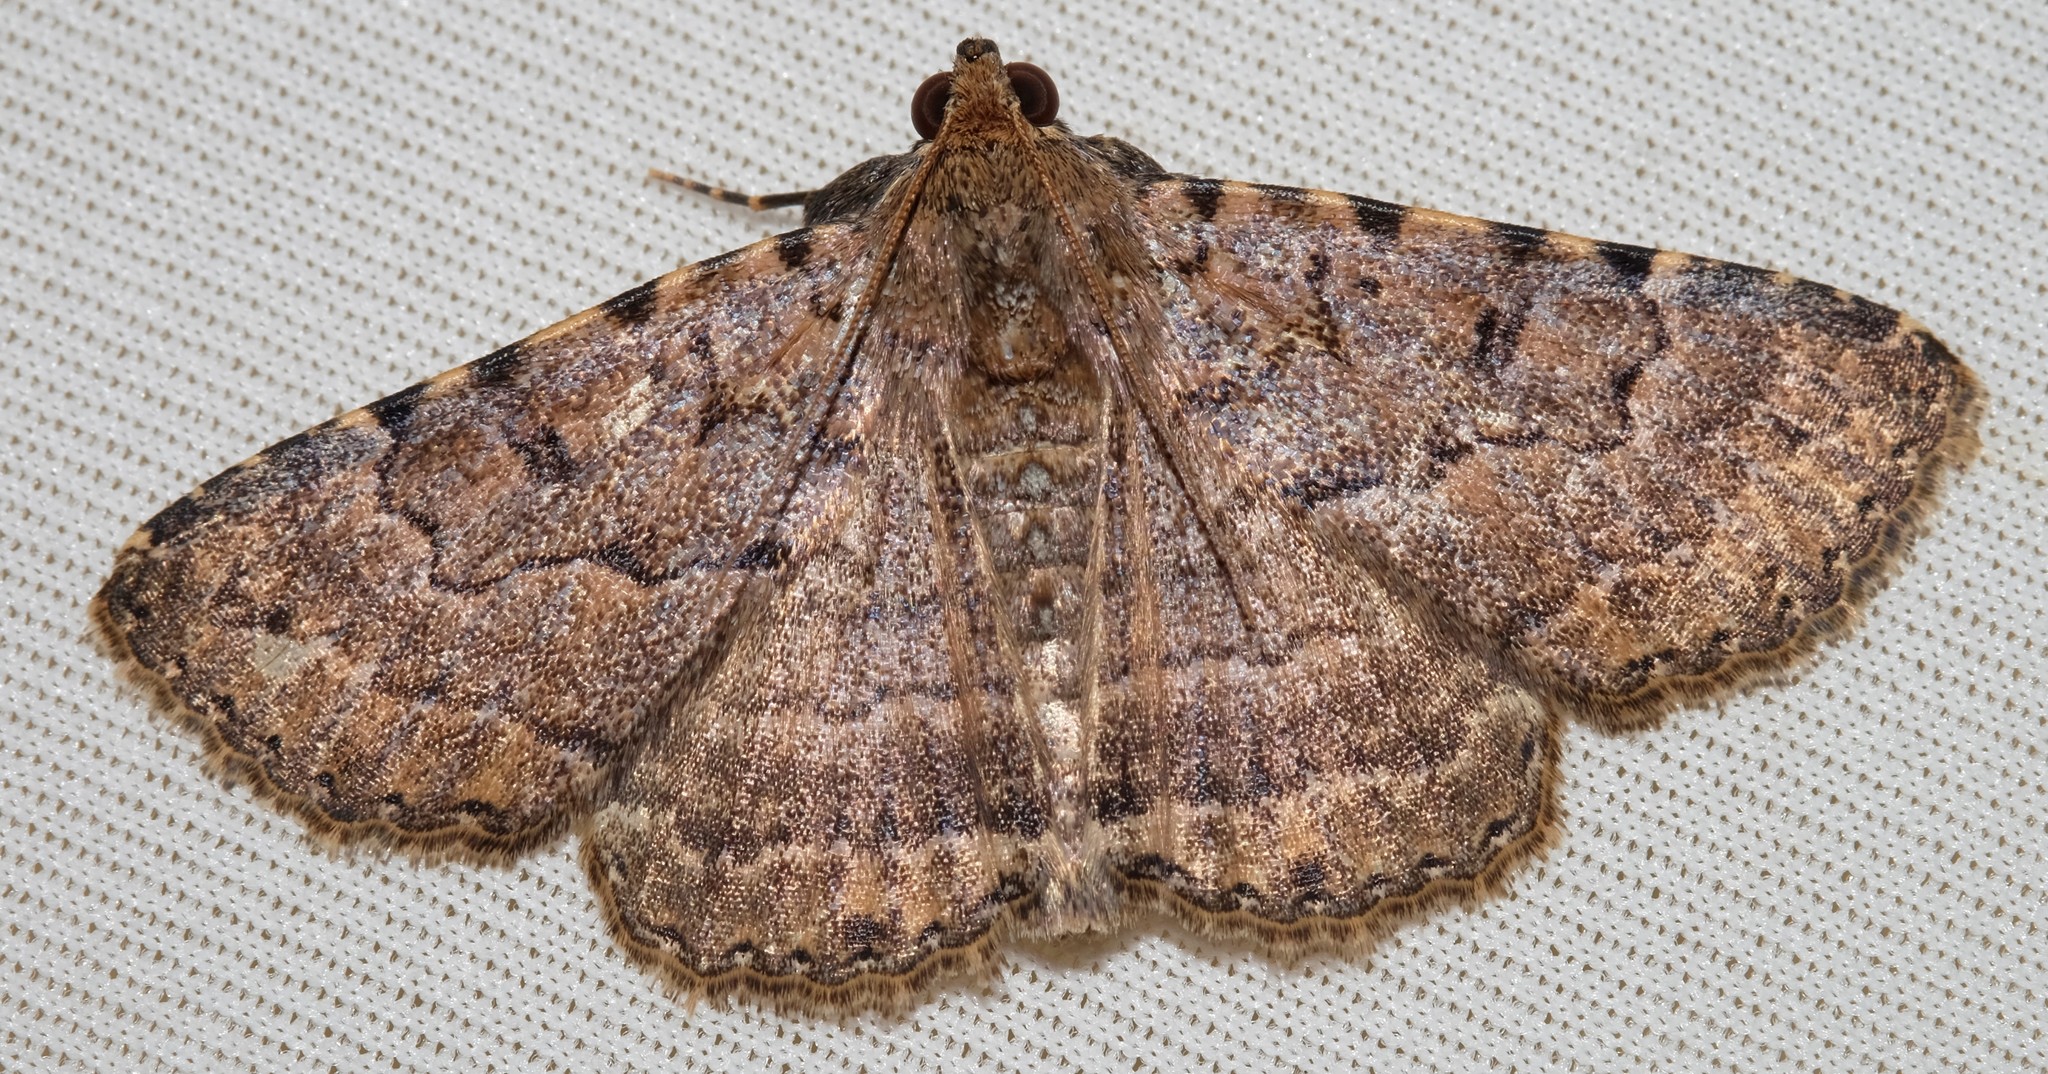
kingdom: Animalia
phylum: Arthropoda
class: Insecta
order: Lepidoptera
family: Erebidae
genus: Diatenes
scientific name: Diatenes aglossoides
